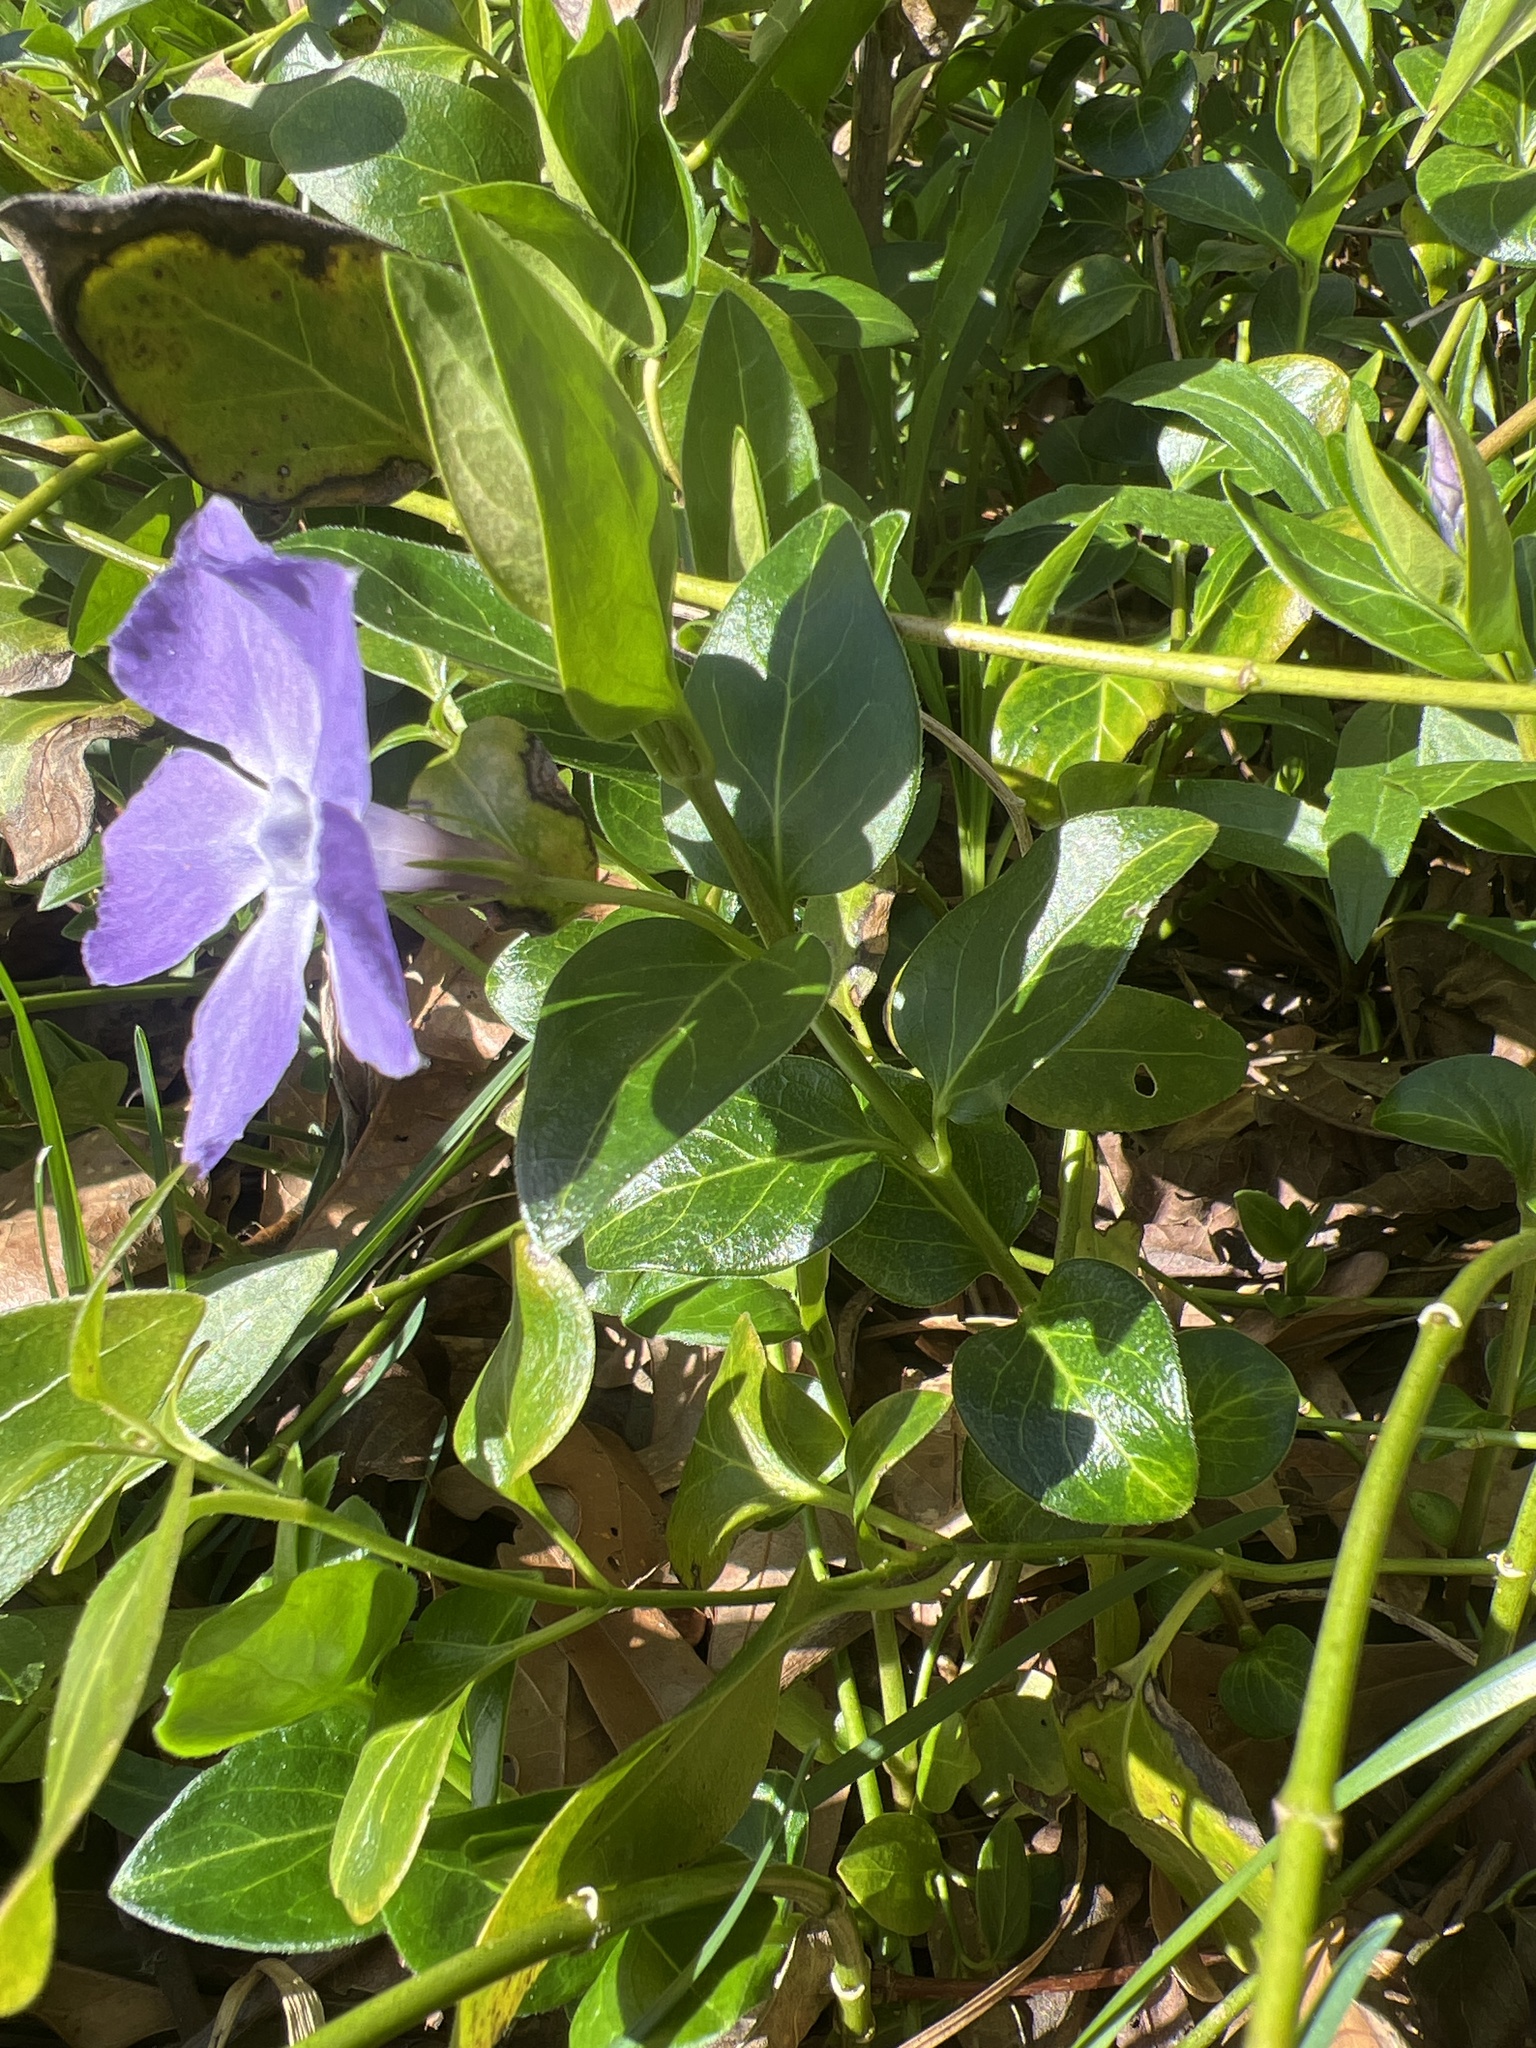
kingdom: Plantae
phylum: Tracheophyta
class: Magnoliopsida
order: Gentianales
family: Apocynaceae
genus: Vinca
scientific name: Vinca major
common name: Greater periwinkle
